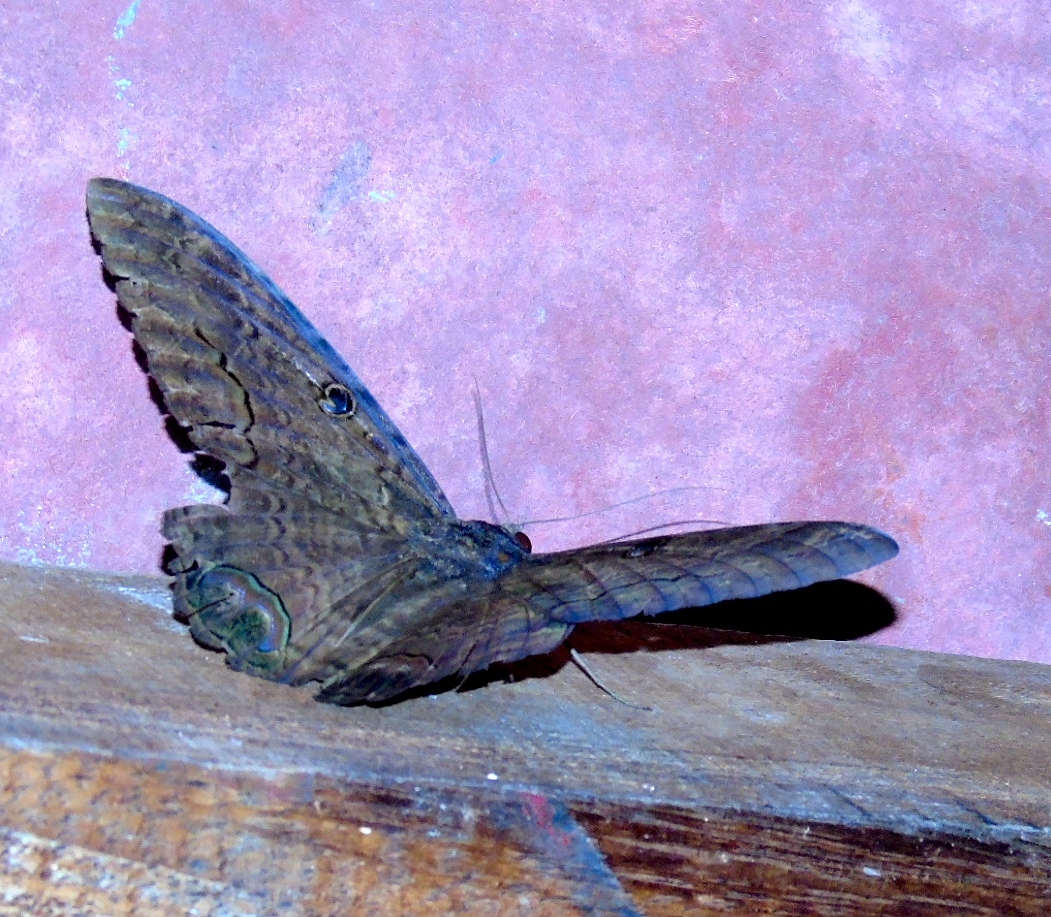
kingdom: Animalia
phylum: Arthropoda
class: Insecta
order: Lepidoptera
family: Erebidae
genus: Ascalapha
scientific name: Ascalapha odorata
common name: Black witch
